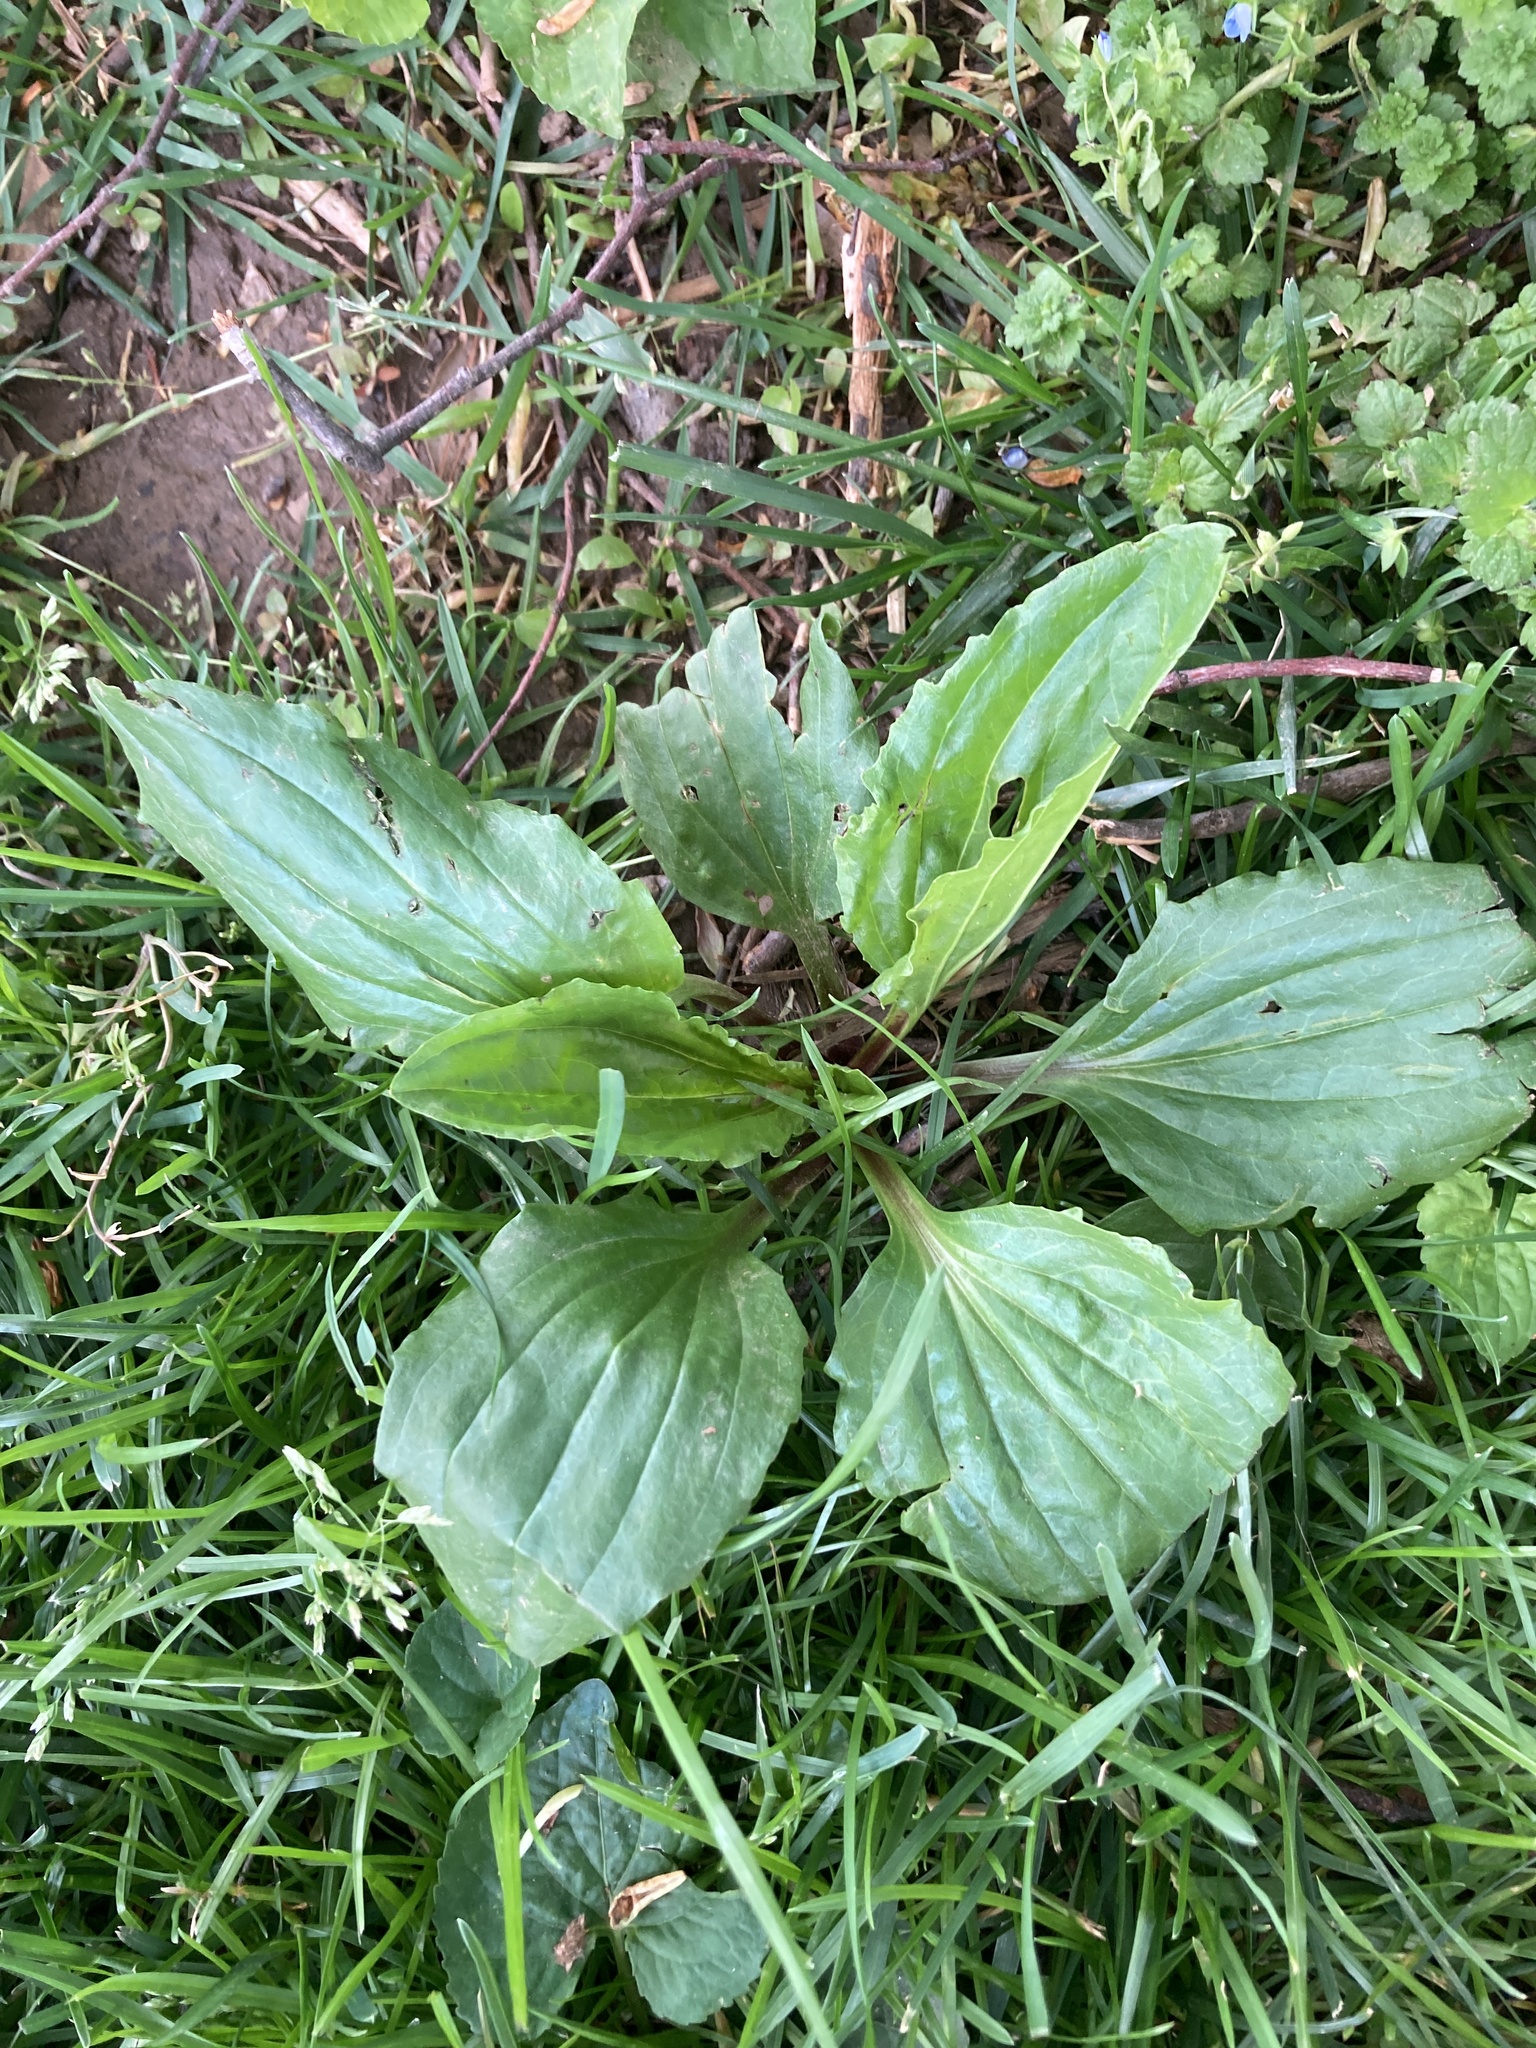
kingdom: Plantae
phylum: Tracheophyta
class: Magnoliopsida
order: Lamiales
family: Plantaginaceae
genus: Plantago
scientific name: Plantago rugelii
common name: American plantain
